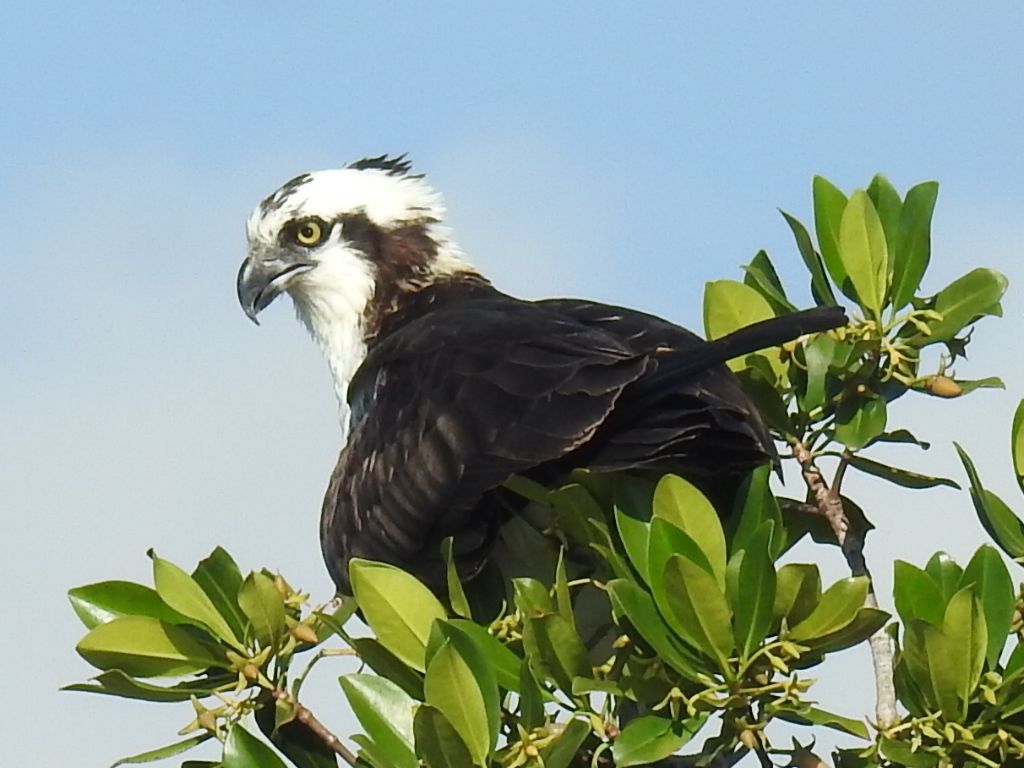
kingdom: Animalia
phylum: Chordata
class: Aves
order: Accipitriformes
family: Pandionidae
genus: Pandion
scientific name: Pandion haliaetus
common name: Osprey
